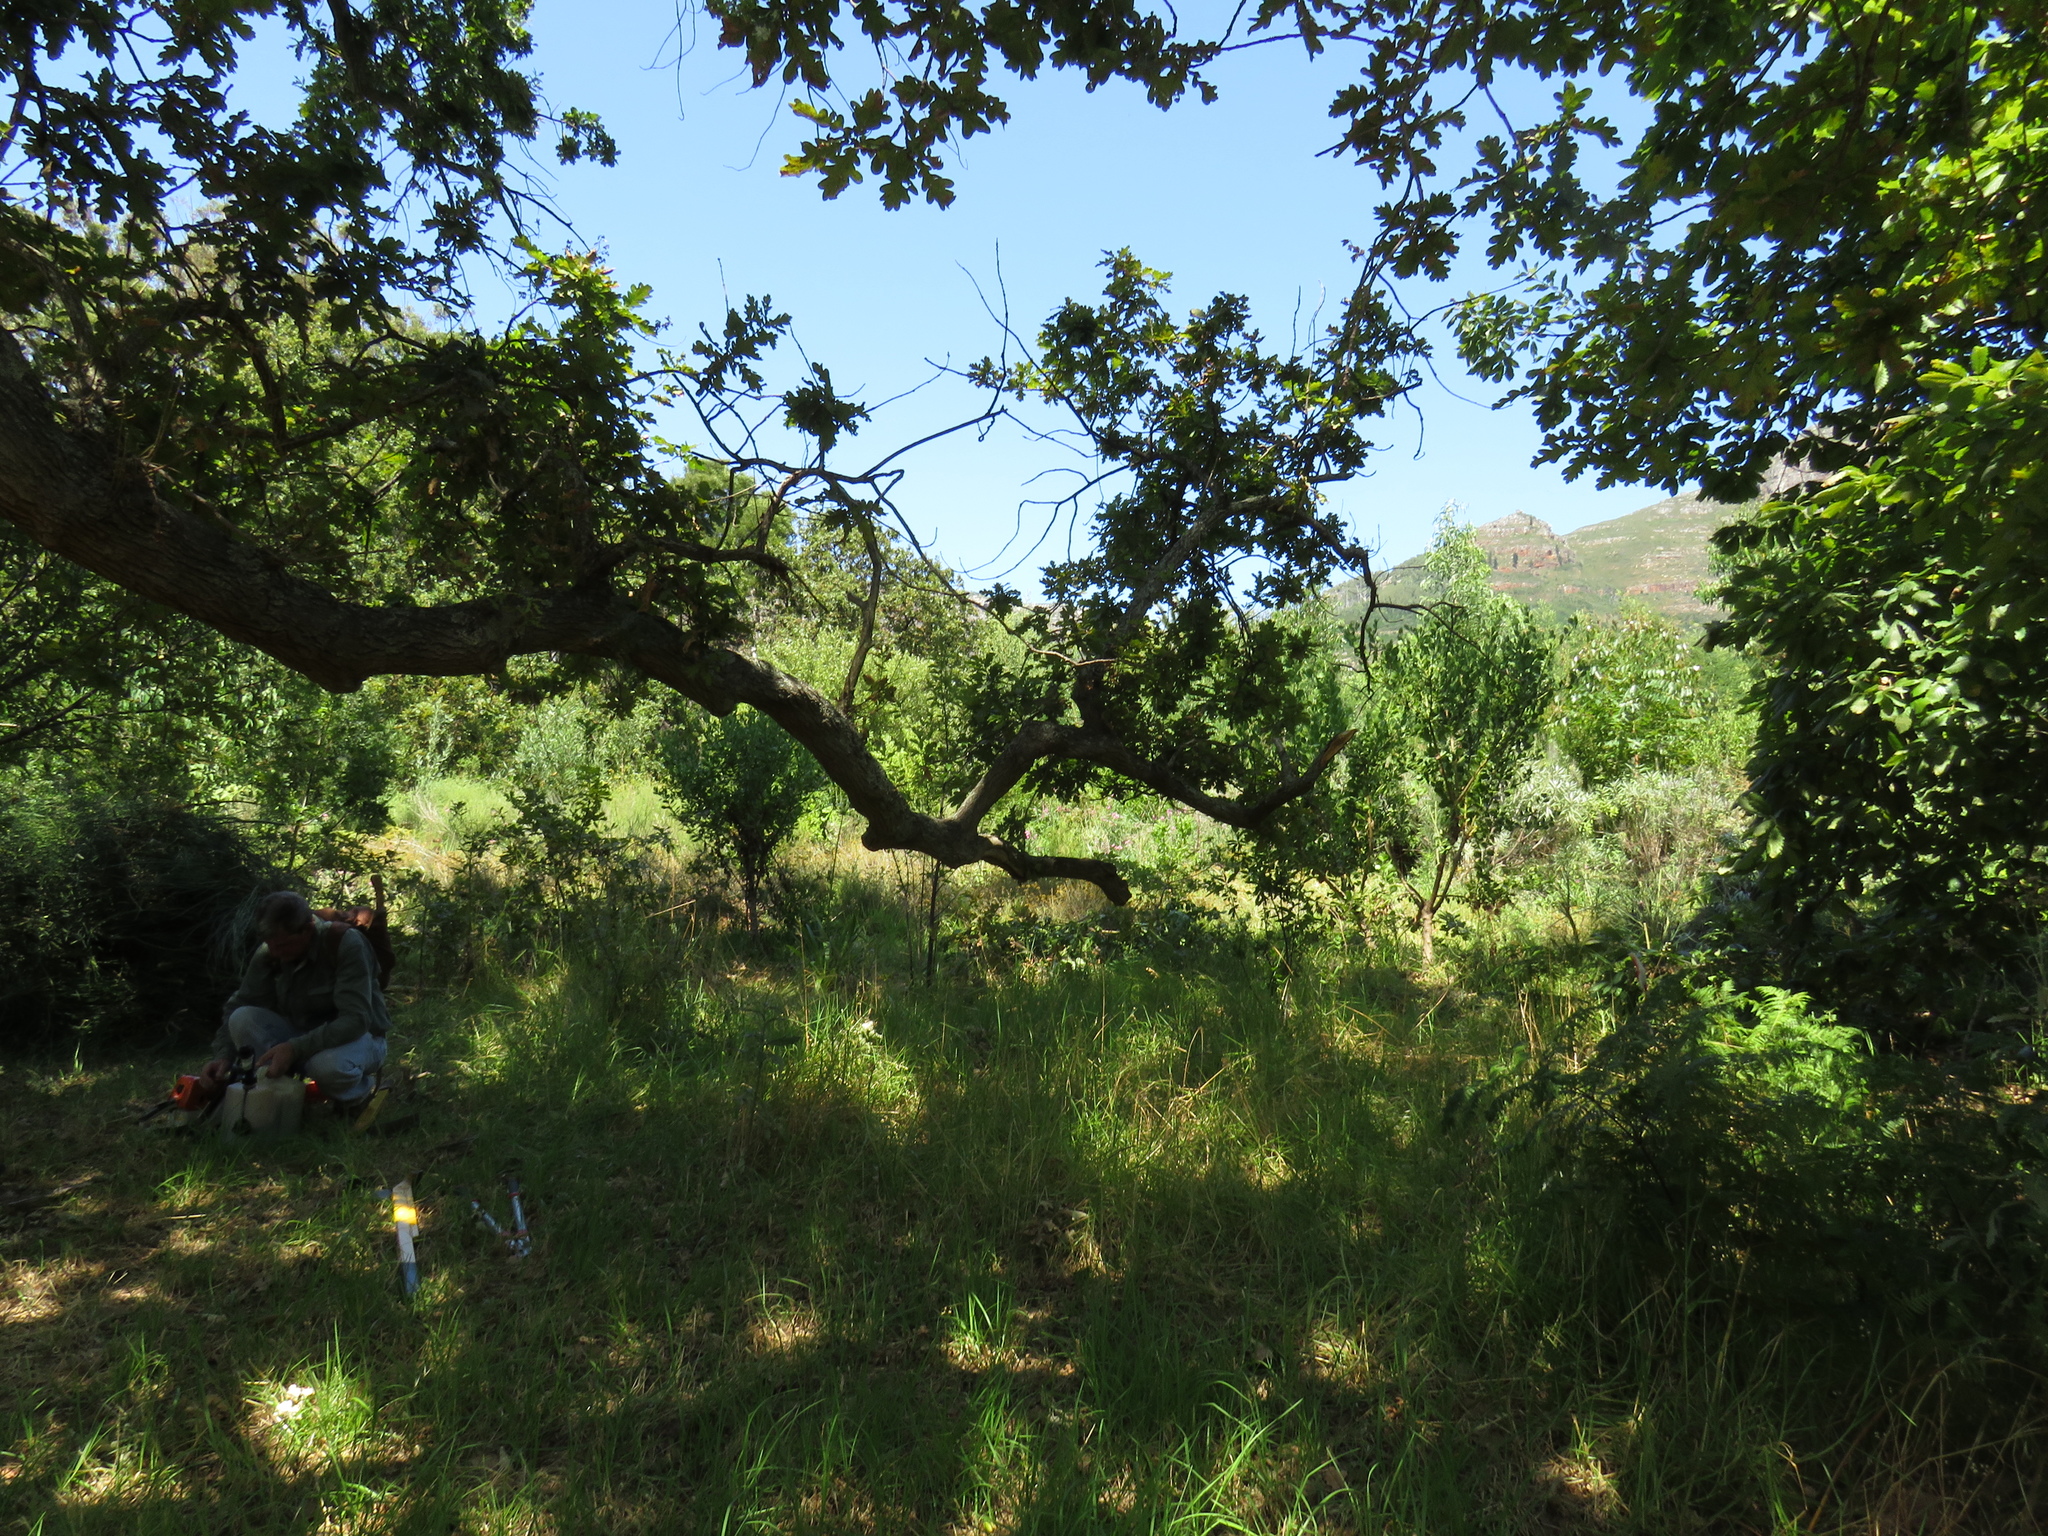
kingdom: Plantae
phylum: Tracheophyta
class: Magnoliopsida
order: Fabales
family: Fabaceae
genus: Spartium
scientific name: Spartium junceum
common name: Spanish broom
